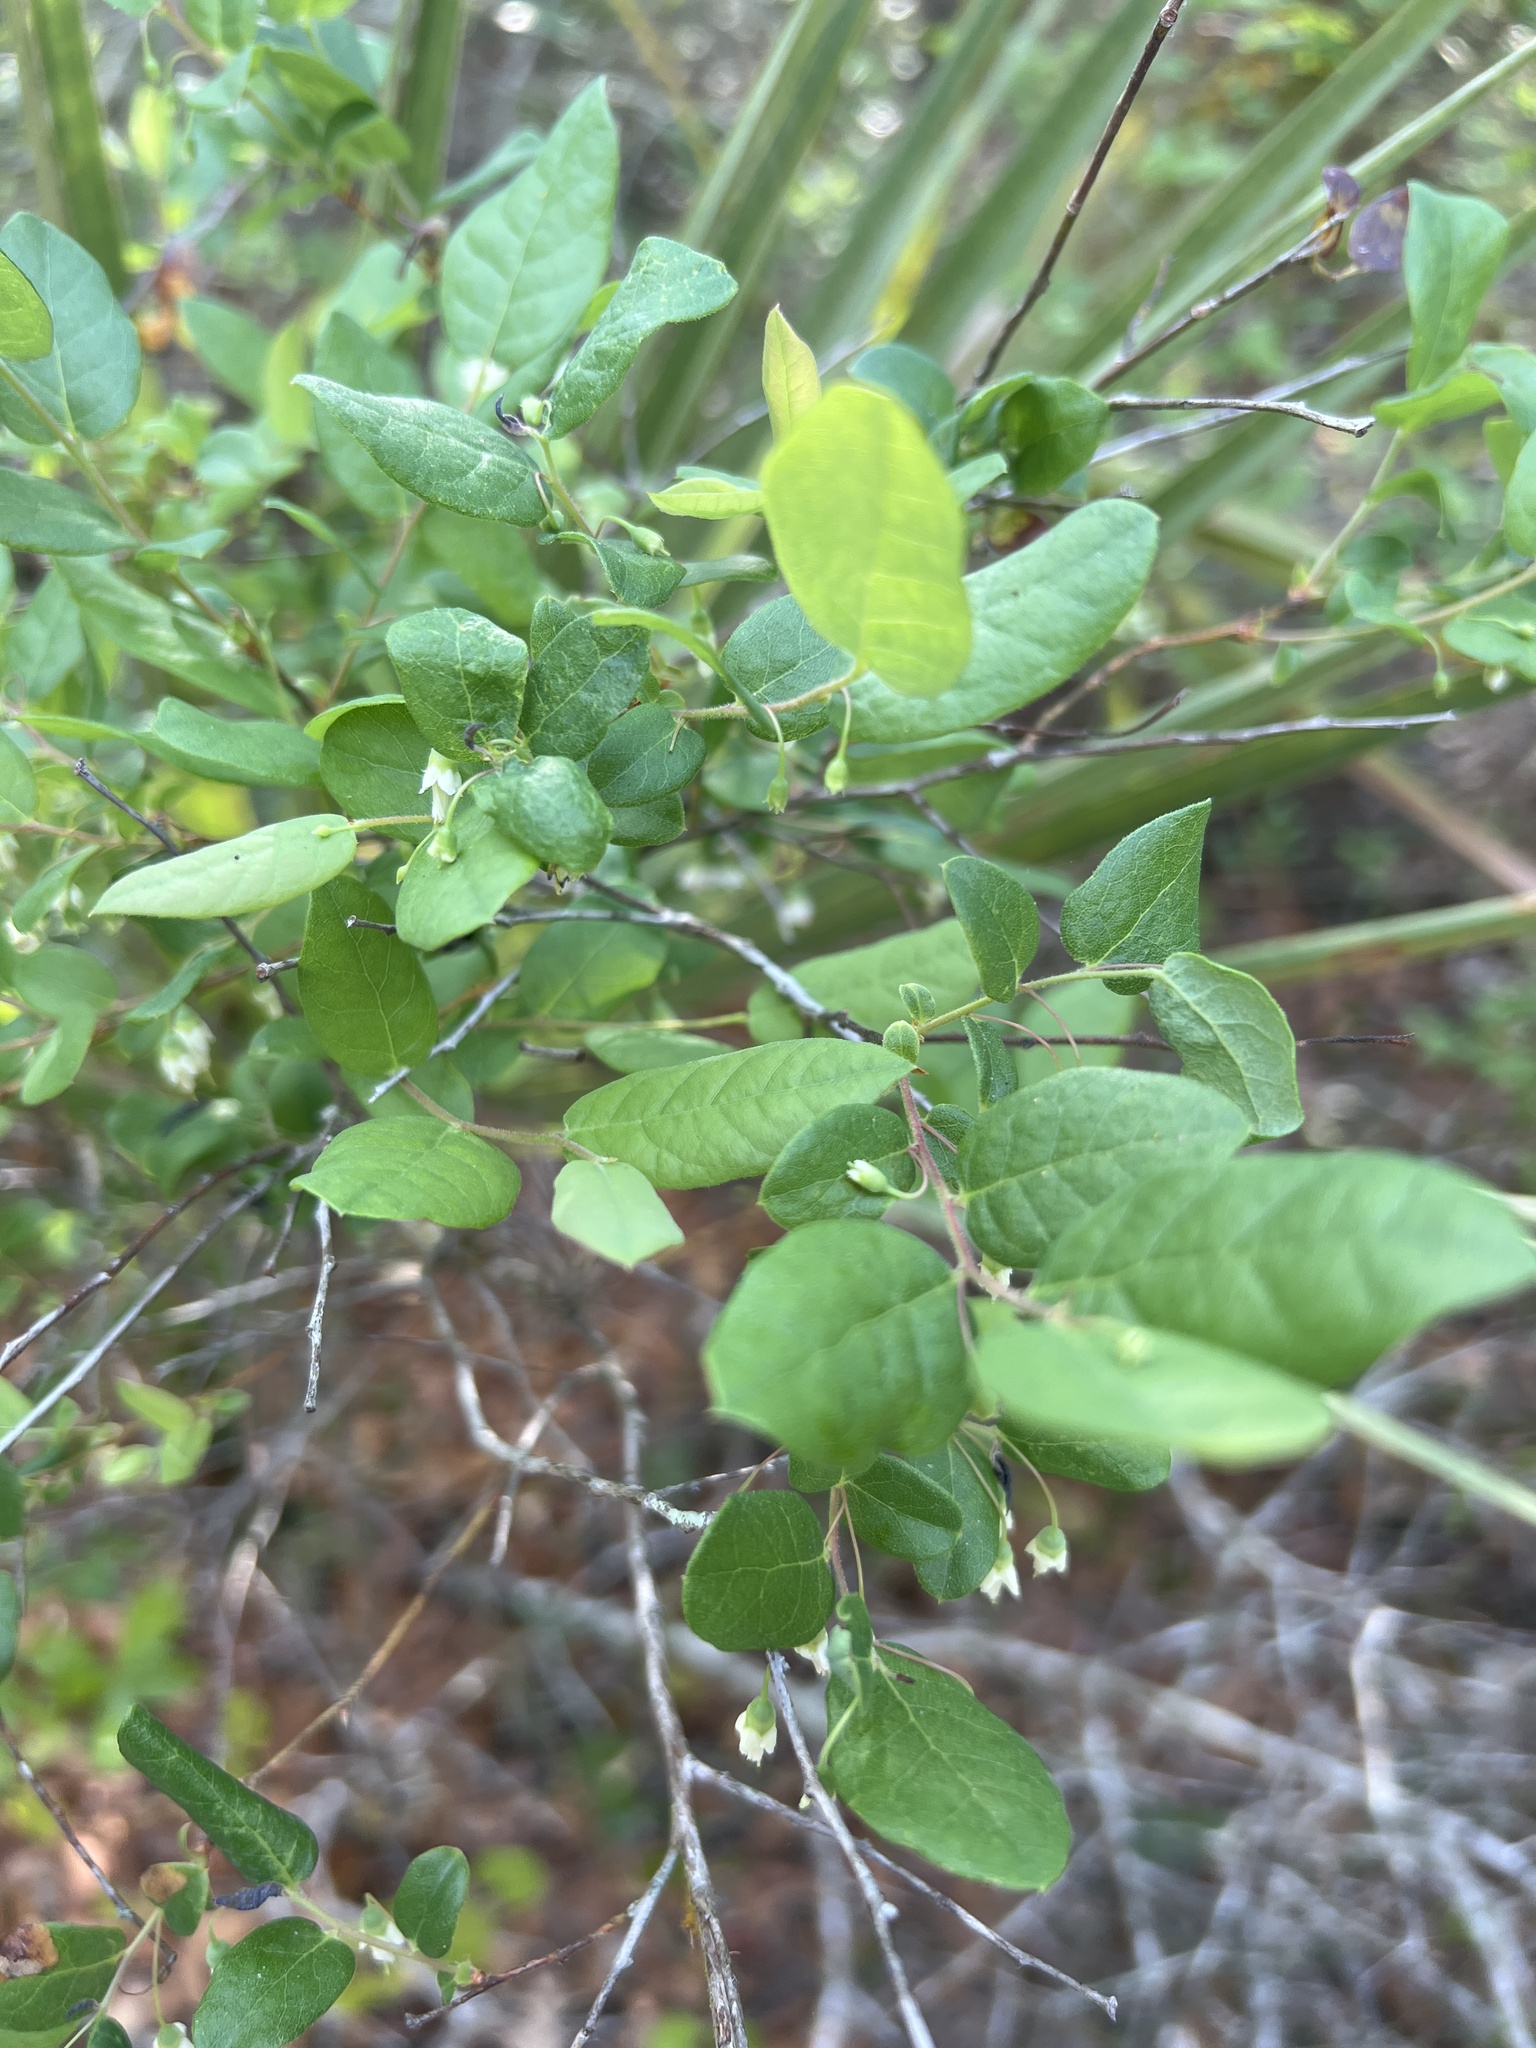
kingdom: Plantae
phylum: Tracheophyta
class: Magnoliopsida
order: Ericales
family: Ericaceae
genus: Vaccinium
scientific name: Vaccinium stamineum
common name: Deerberry
